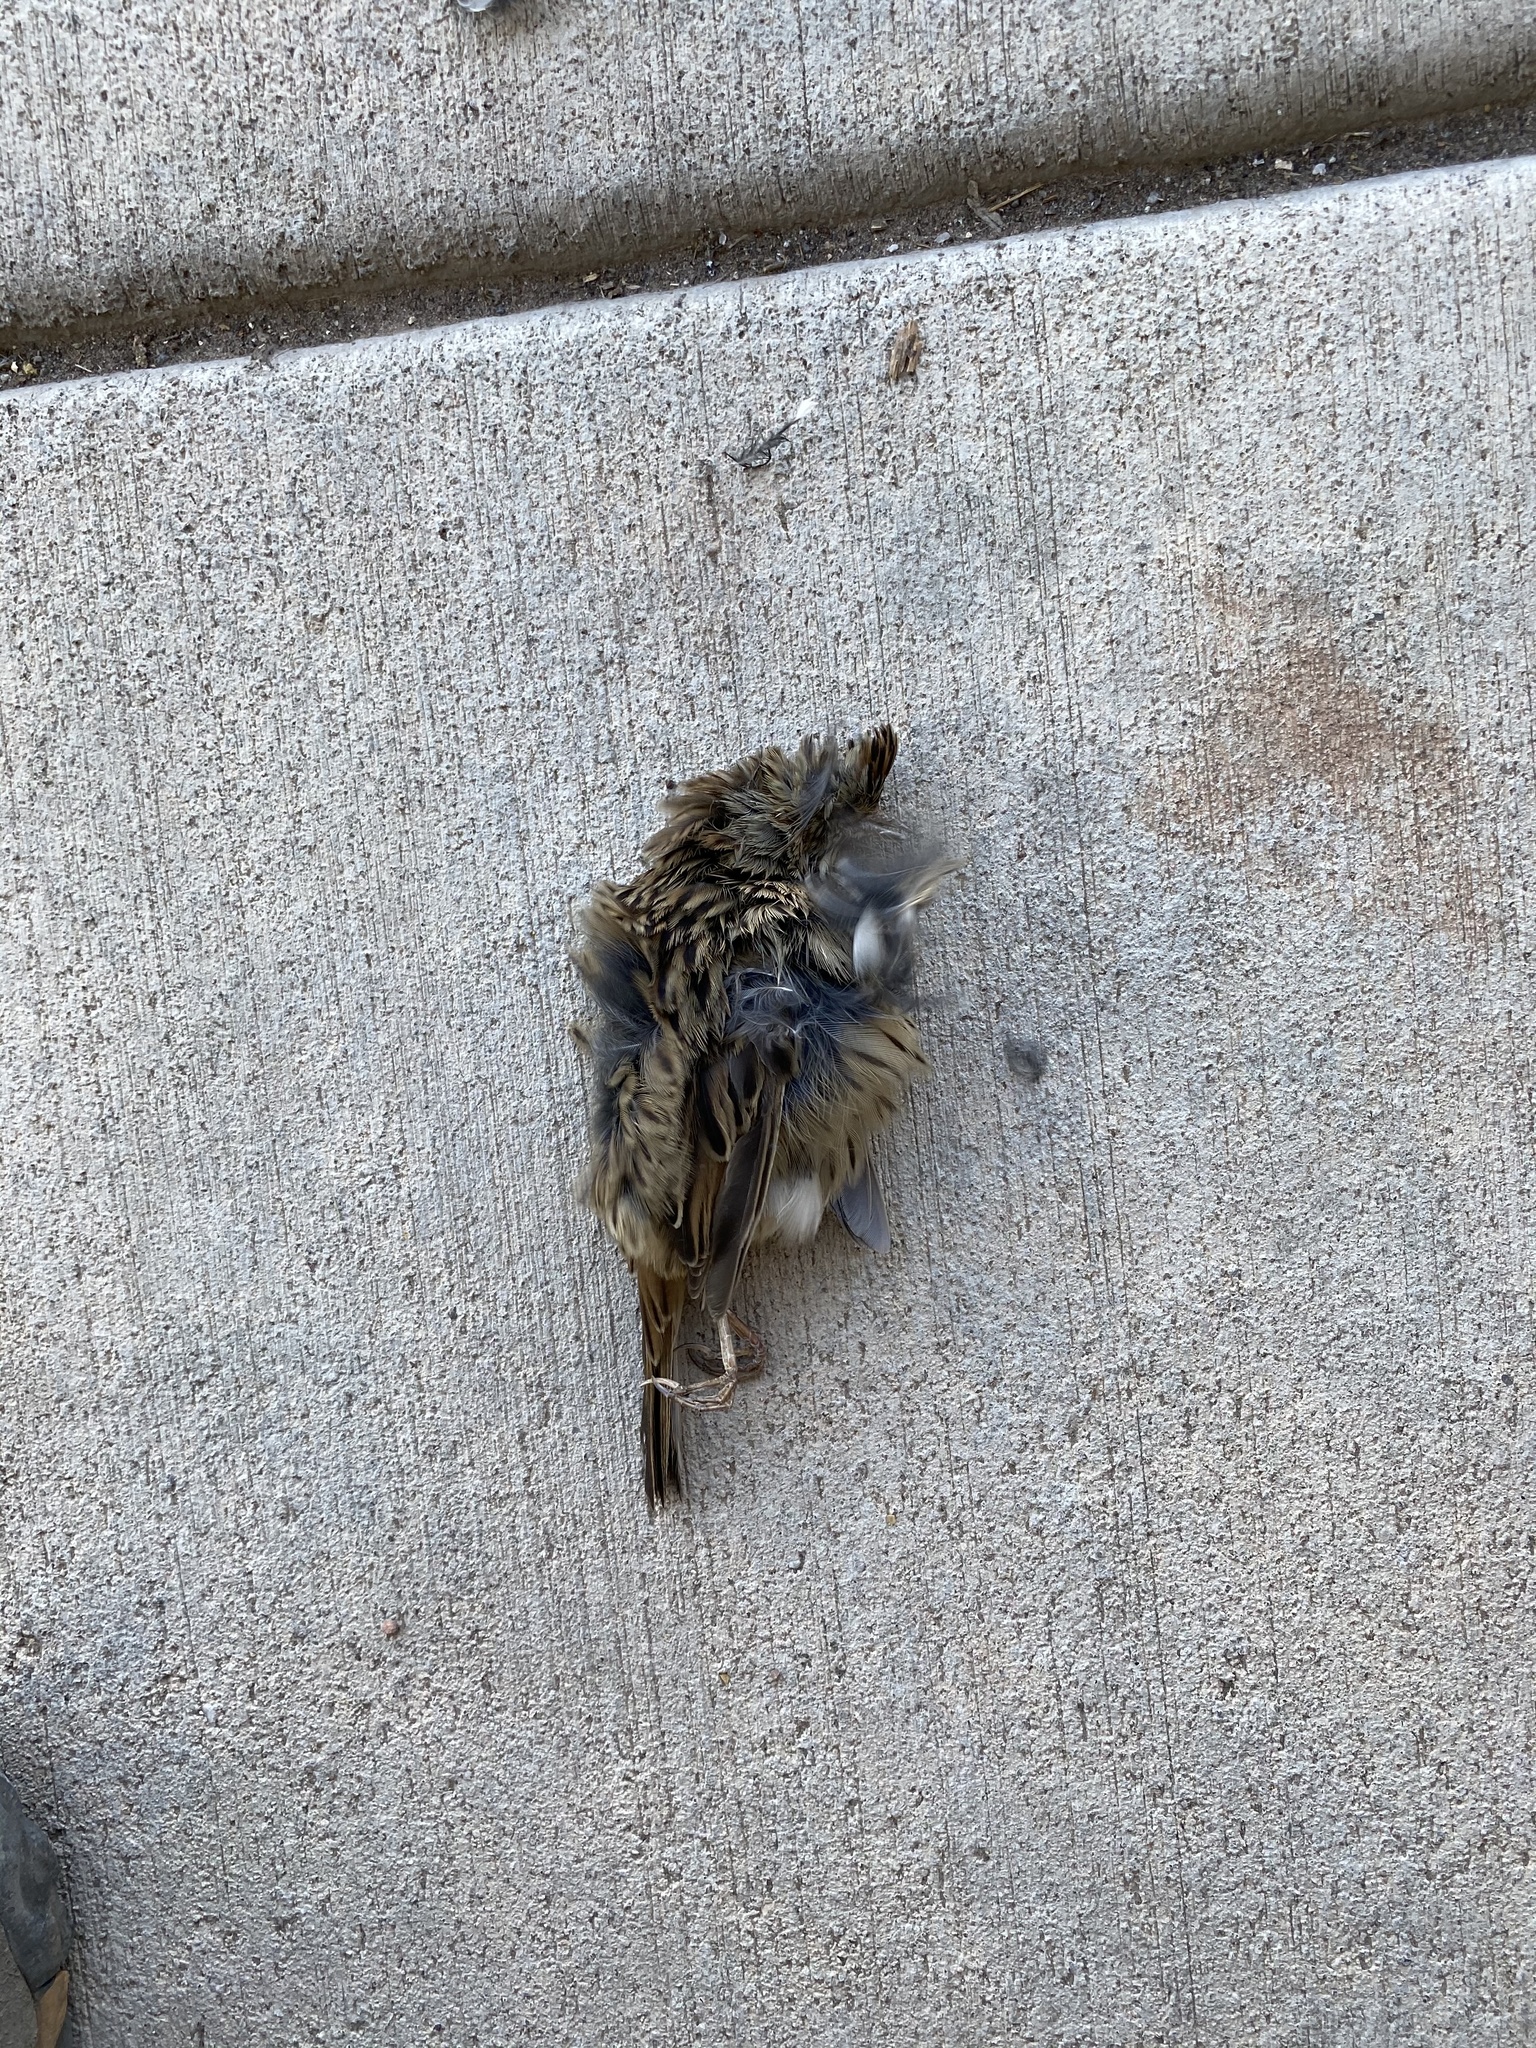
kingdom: Animalia
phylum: Chordata
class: Aves
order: Passeriformes
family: Passerellidae
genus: Melospiza
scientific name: Melospiza lincolnii
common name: Lincoln's sparrow
